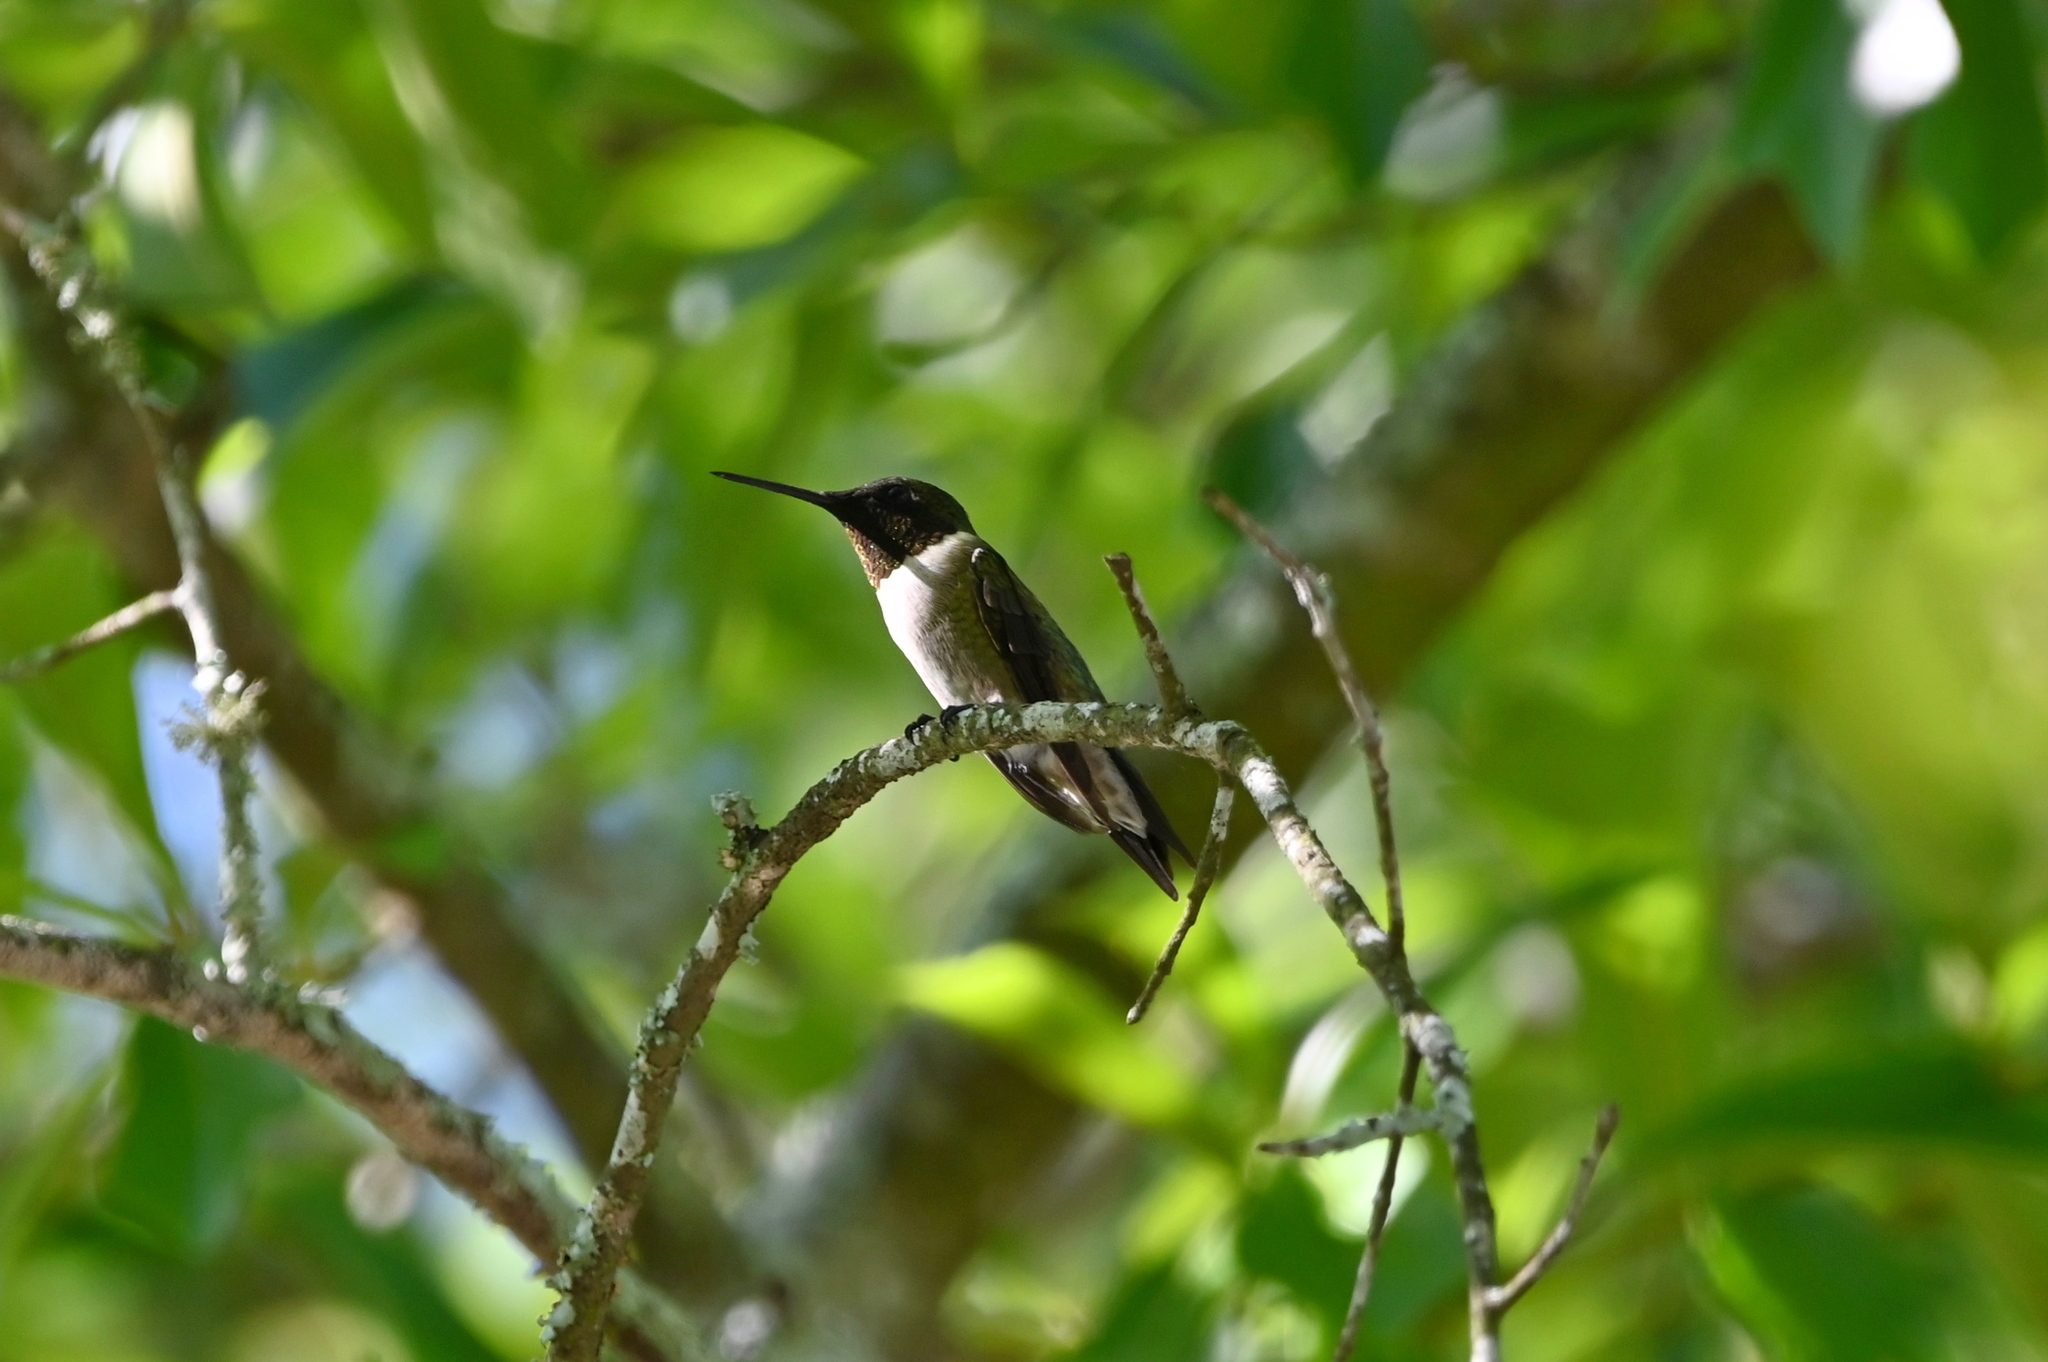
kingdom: Animalia
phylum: Chordata
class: Aves
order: Apodiformes
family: Trochilidae
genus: Archilochus
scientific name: Archilochus colubris
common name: Ruby-throated hummingbird
